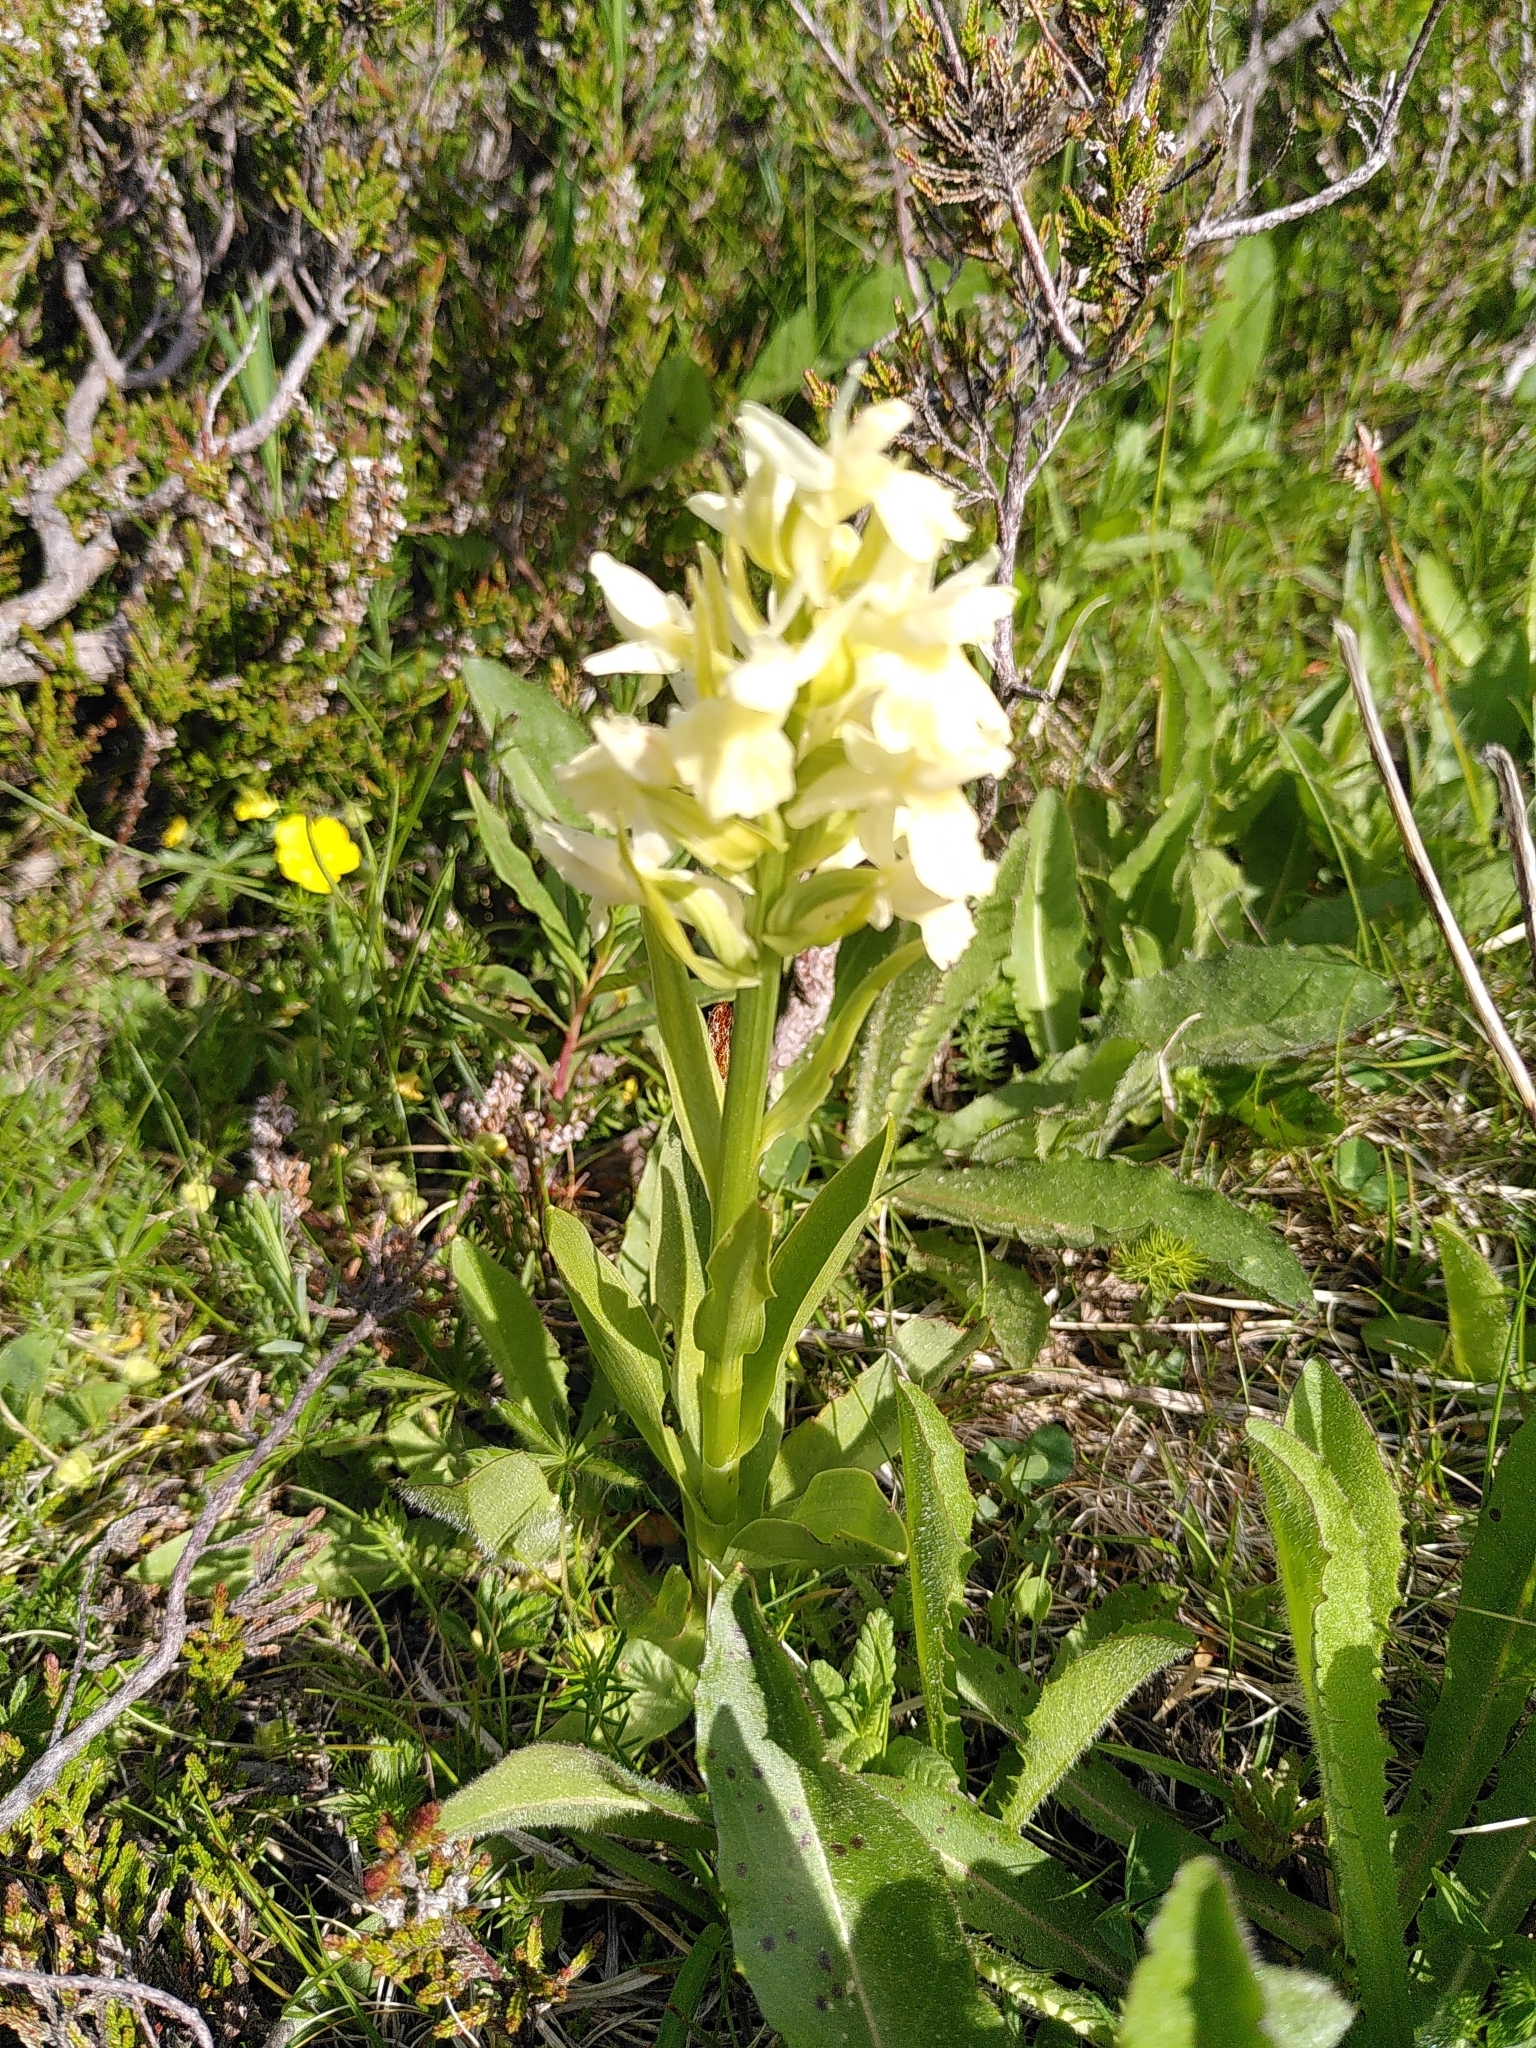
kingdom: Plantae
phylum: Tracheophyta
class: Liliopsida
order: Asparagales
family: Orchidaceae
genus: Dactylorhiza
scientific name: Dactylorhiza sambucina
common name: Elder-flowered orchid
